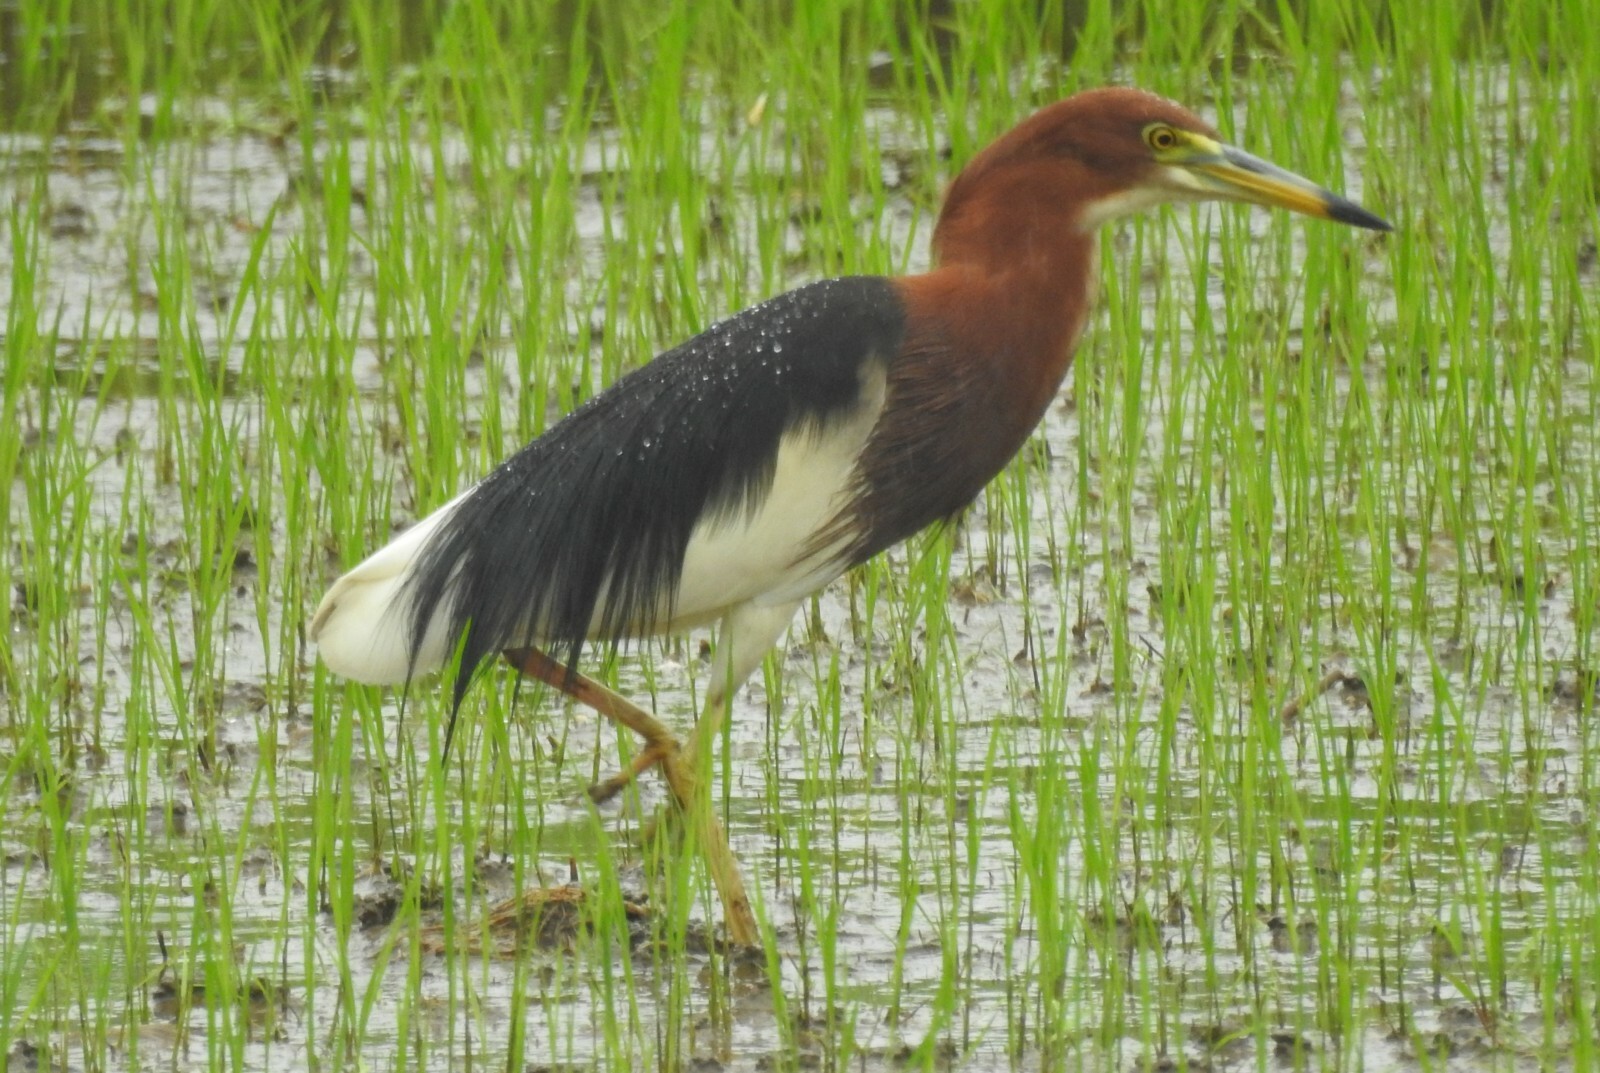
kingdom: Animalia
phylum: Chordata
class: Aves
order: Pelecaniformes
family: Ardeidae
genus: Ardeola
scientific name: Ardeola bacchus
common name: Chinese pond heron
